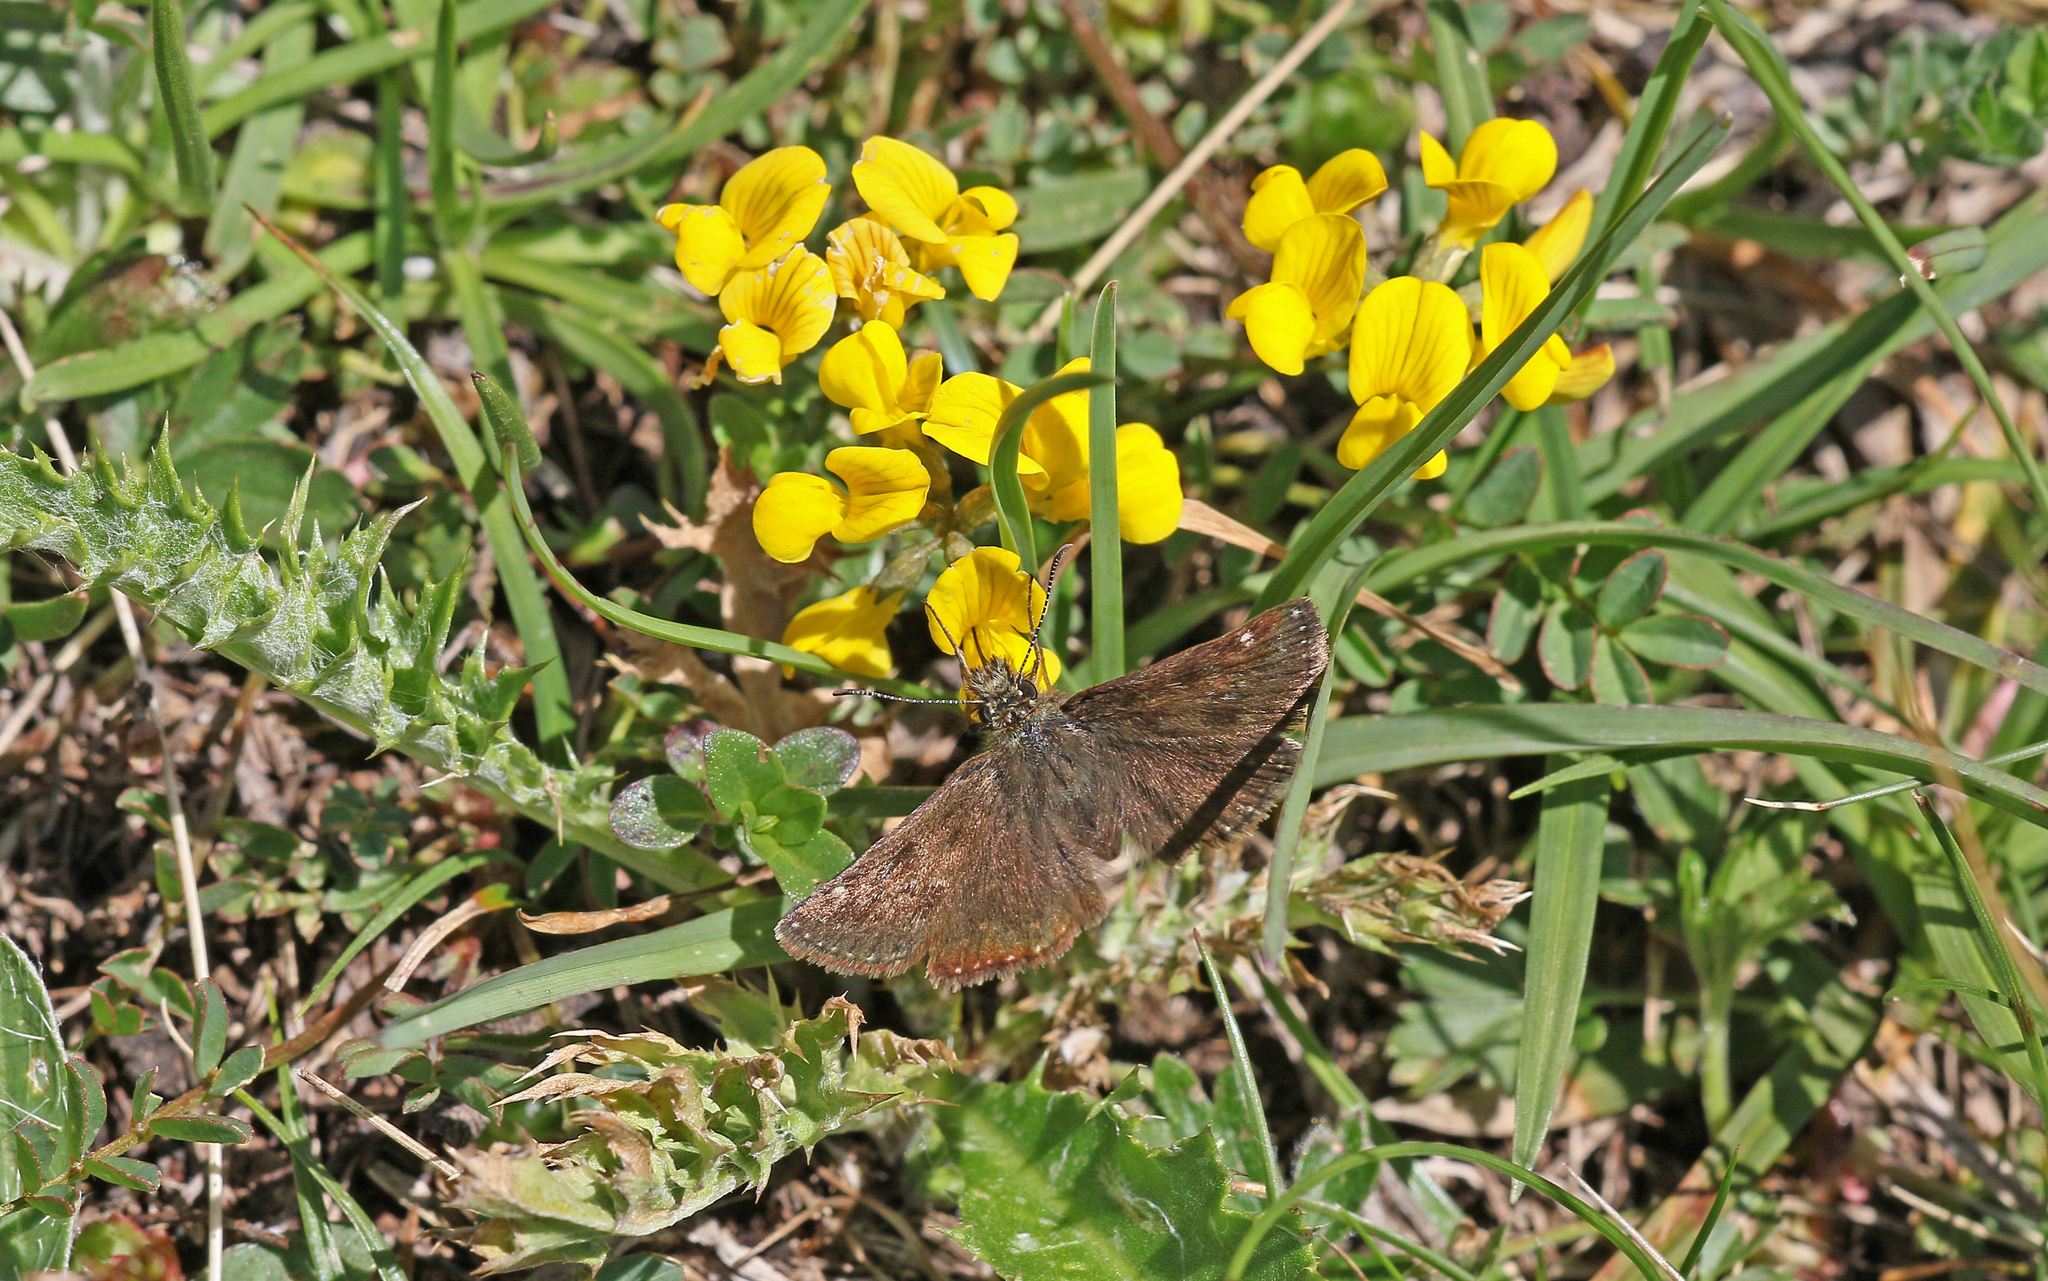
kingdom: Animalia
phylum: Arthropoda
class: Insecta
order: Lepidoptera
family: Hesperiidae
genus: Erynnis
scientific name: Erynnis tages
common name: Dingy skipper
